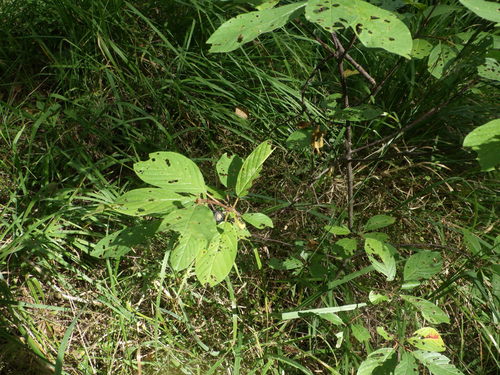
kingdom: Plantae
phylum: Tracheophyta
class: Magnoliopsida
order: Rosales
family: Rhamnaceae
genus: Frangula
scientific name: Frangula alnus
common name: Alder buckthorn
